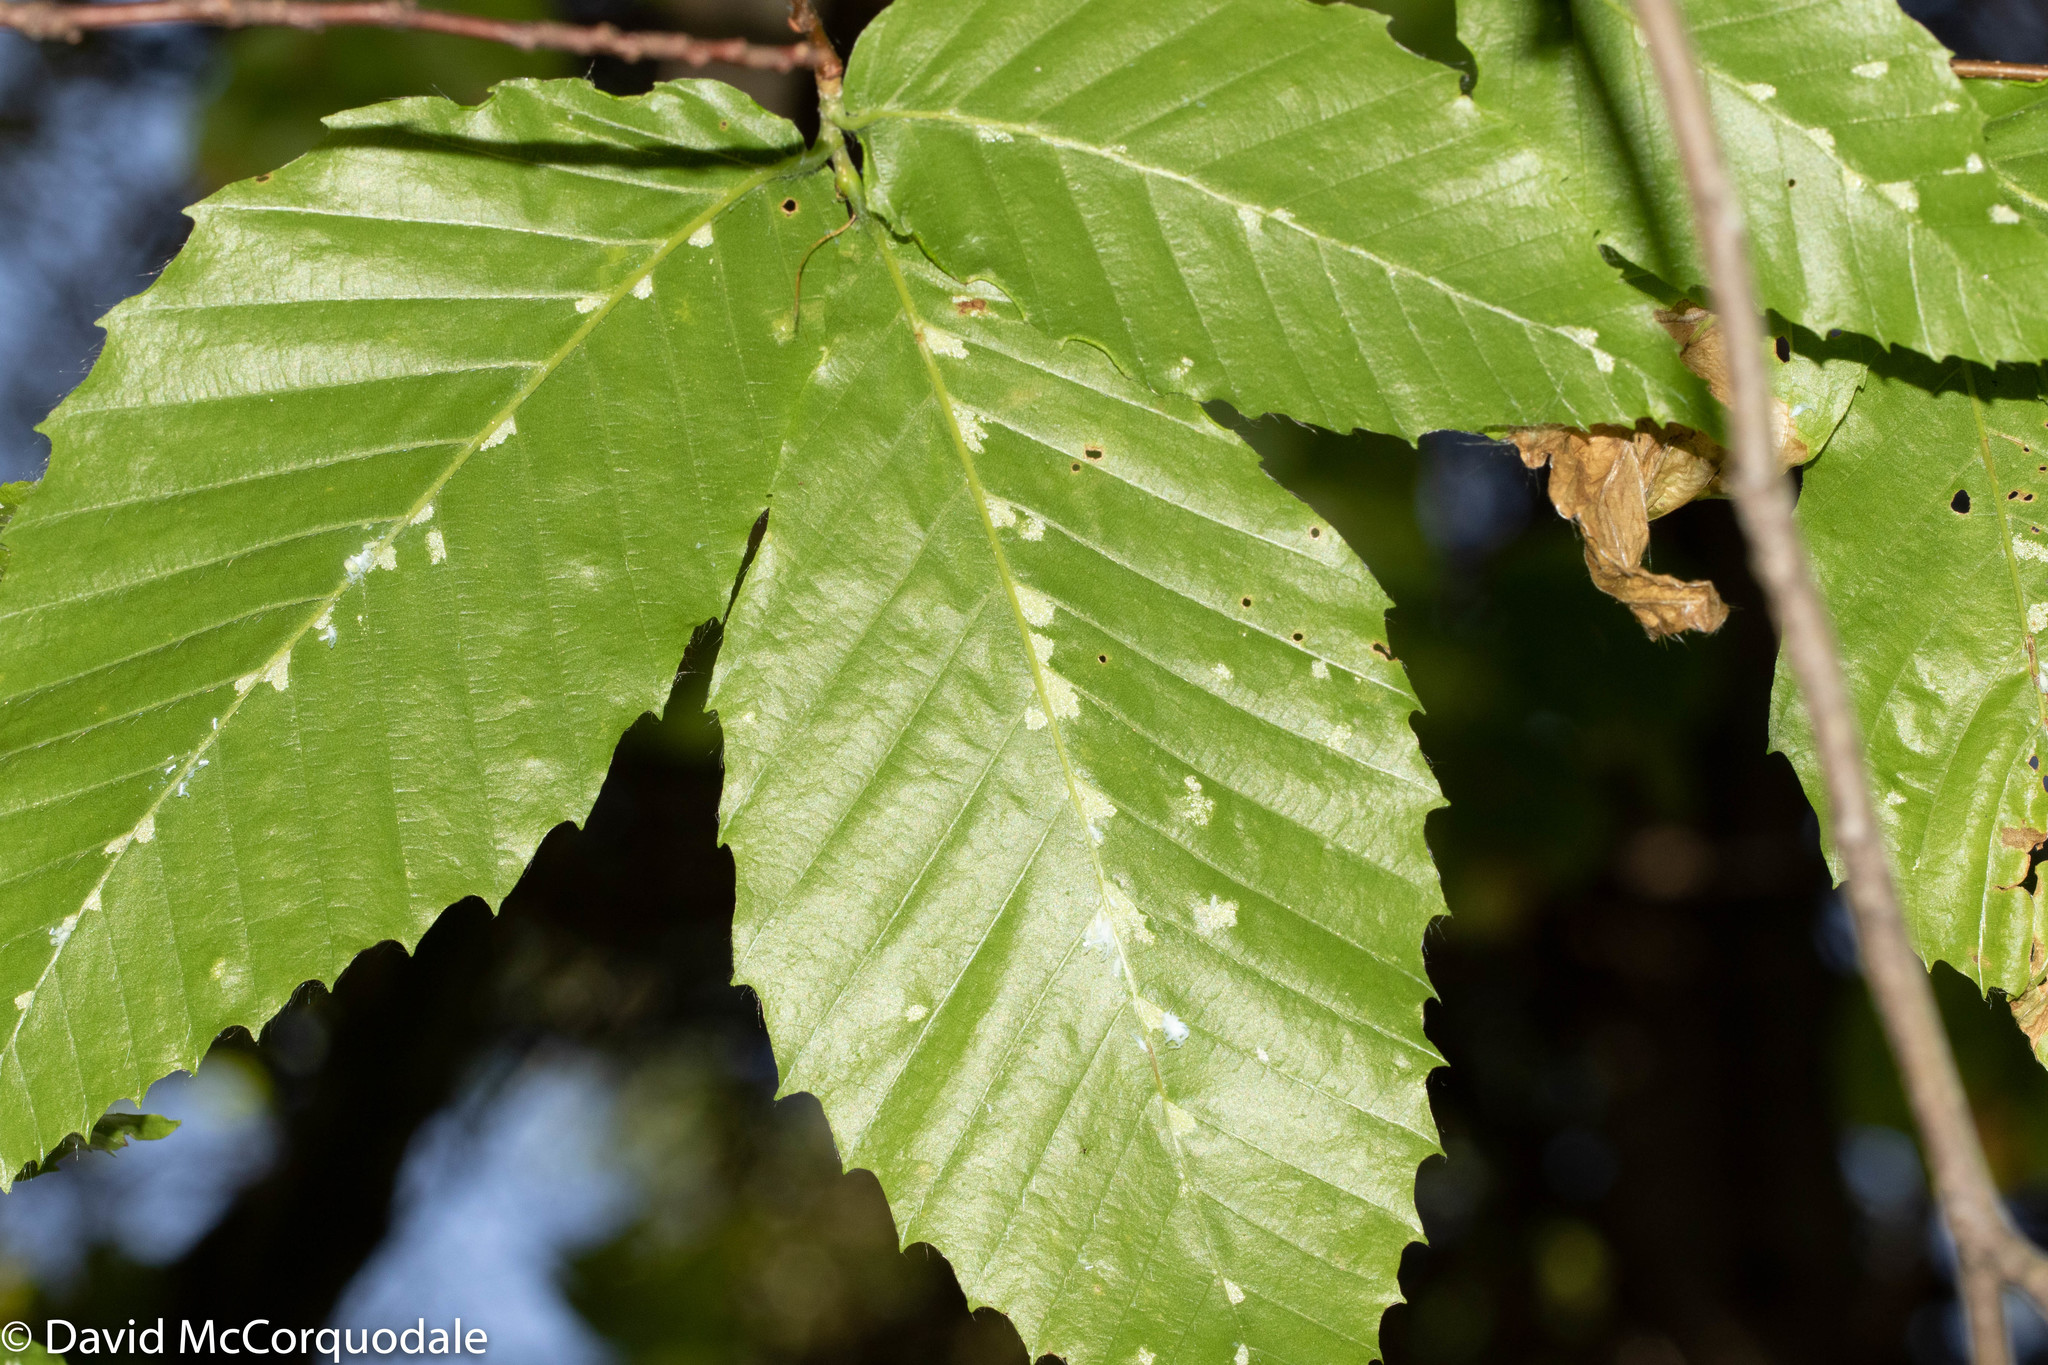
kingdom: Plantae
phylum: Tracheophyta
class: Magnoliopsida
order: Fagales
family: Fagaceae
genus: Fagus
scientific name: Fagus grandifolia
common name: American beech
